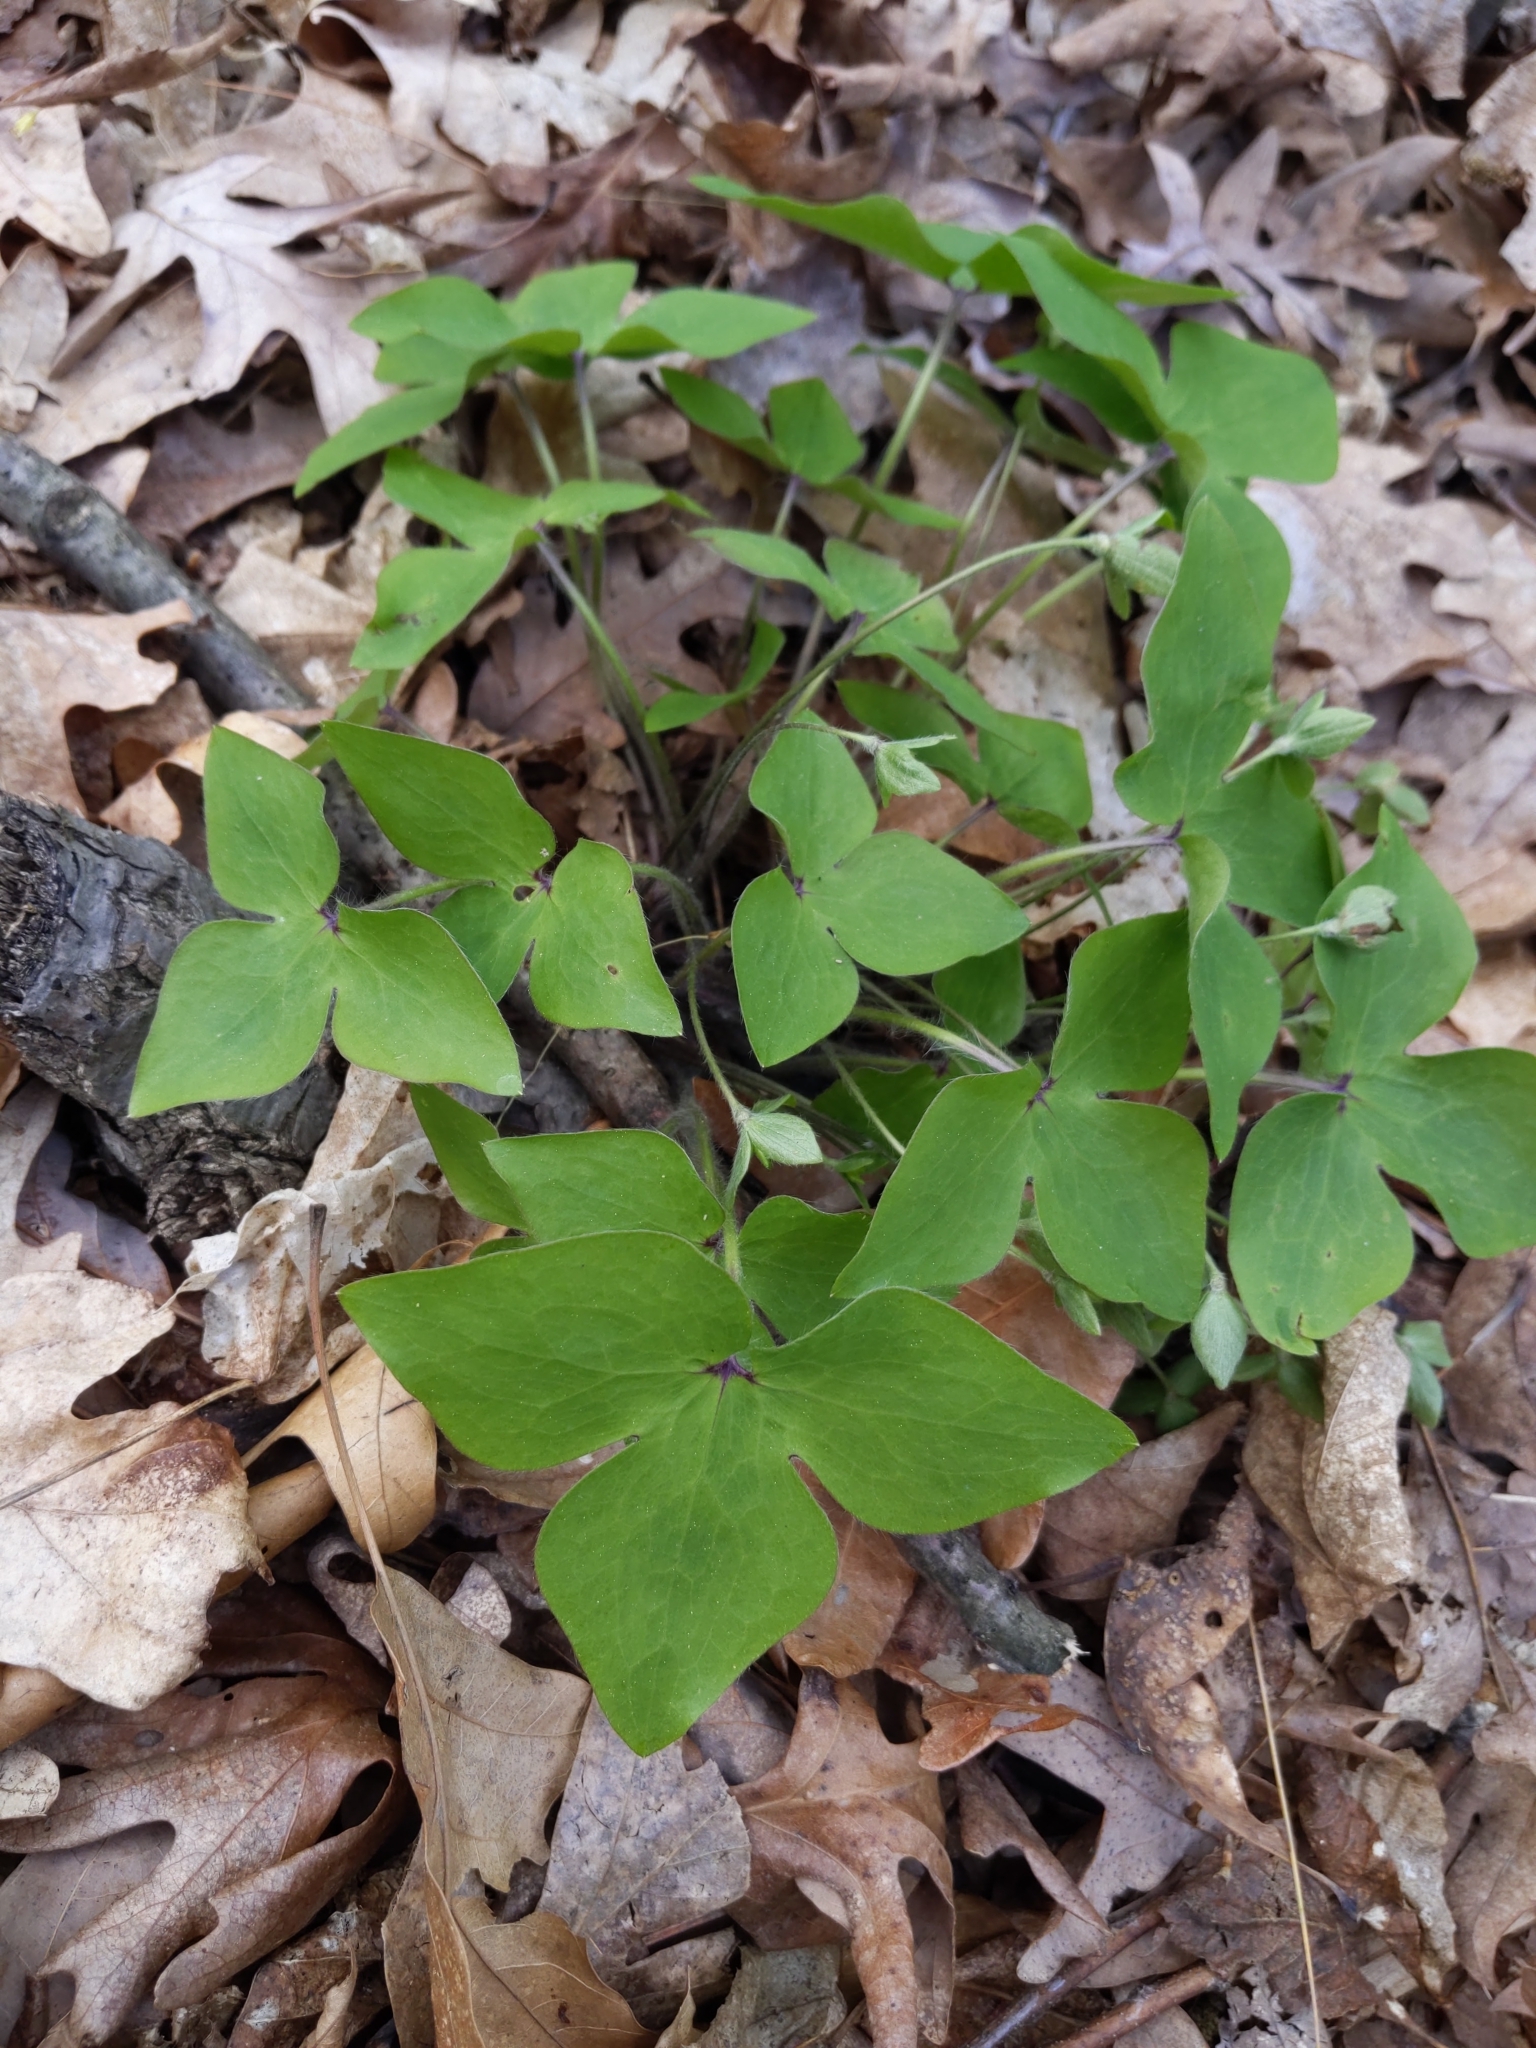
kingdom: Plantae
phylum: Tracheophyta
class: Magnoliopsida
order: Ranunculales
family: Ranunculaceae
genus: Hepatica
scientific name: Hepatica acutiloba
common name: Sharp-lobed hepatica
